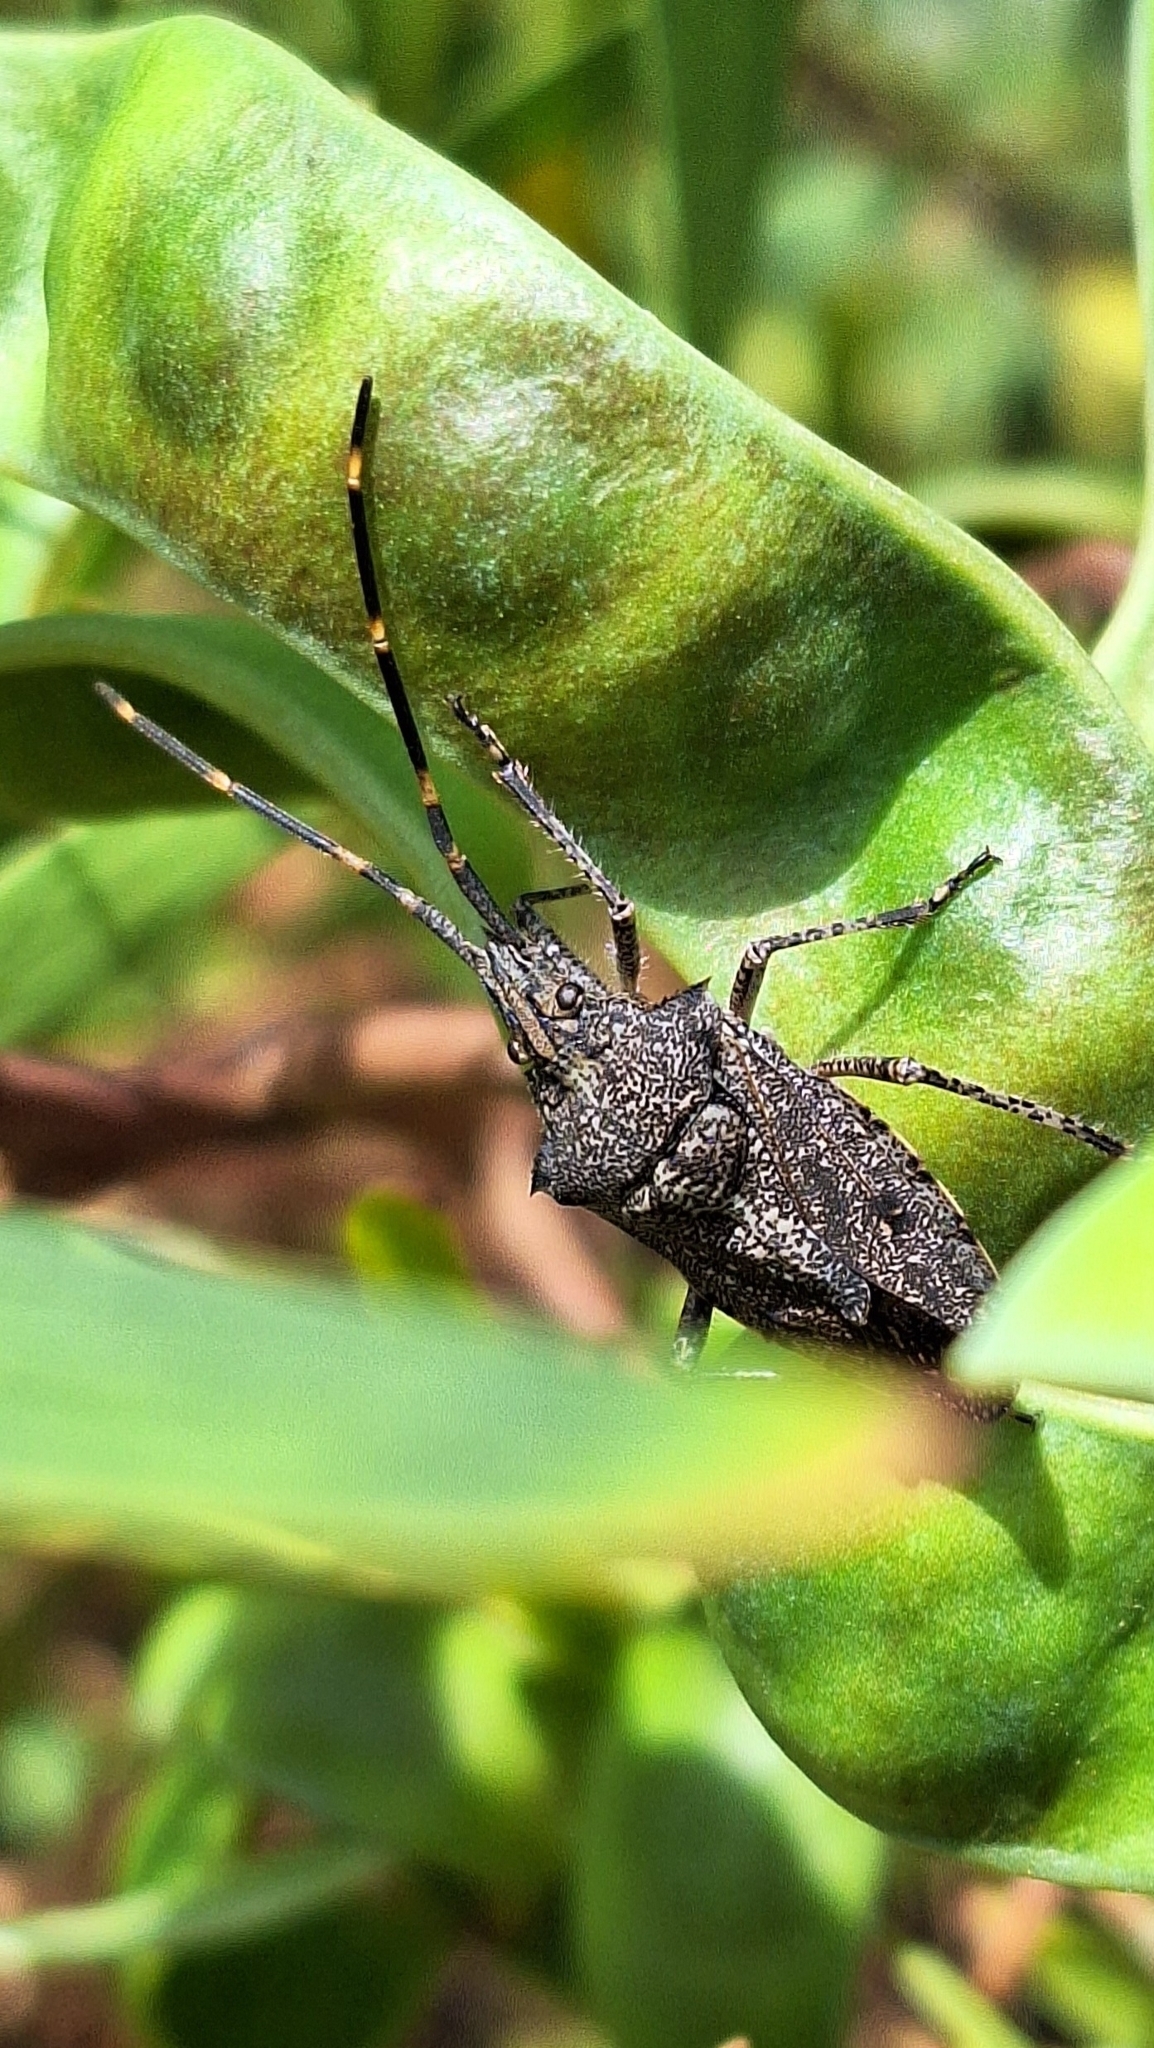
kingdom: Animalia
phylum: Arthropoda
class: Insecta
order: Hemiptera
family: Pentatomidae
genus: Alcaeus
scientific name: Alcaeus
